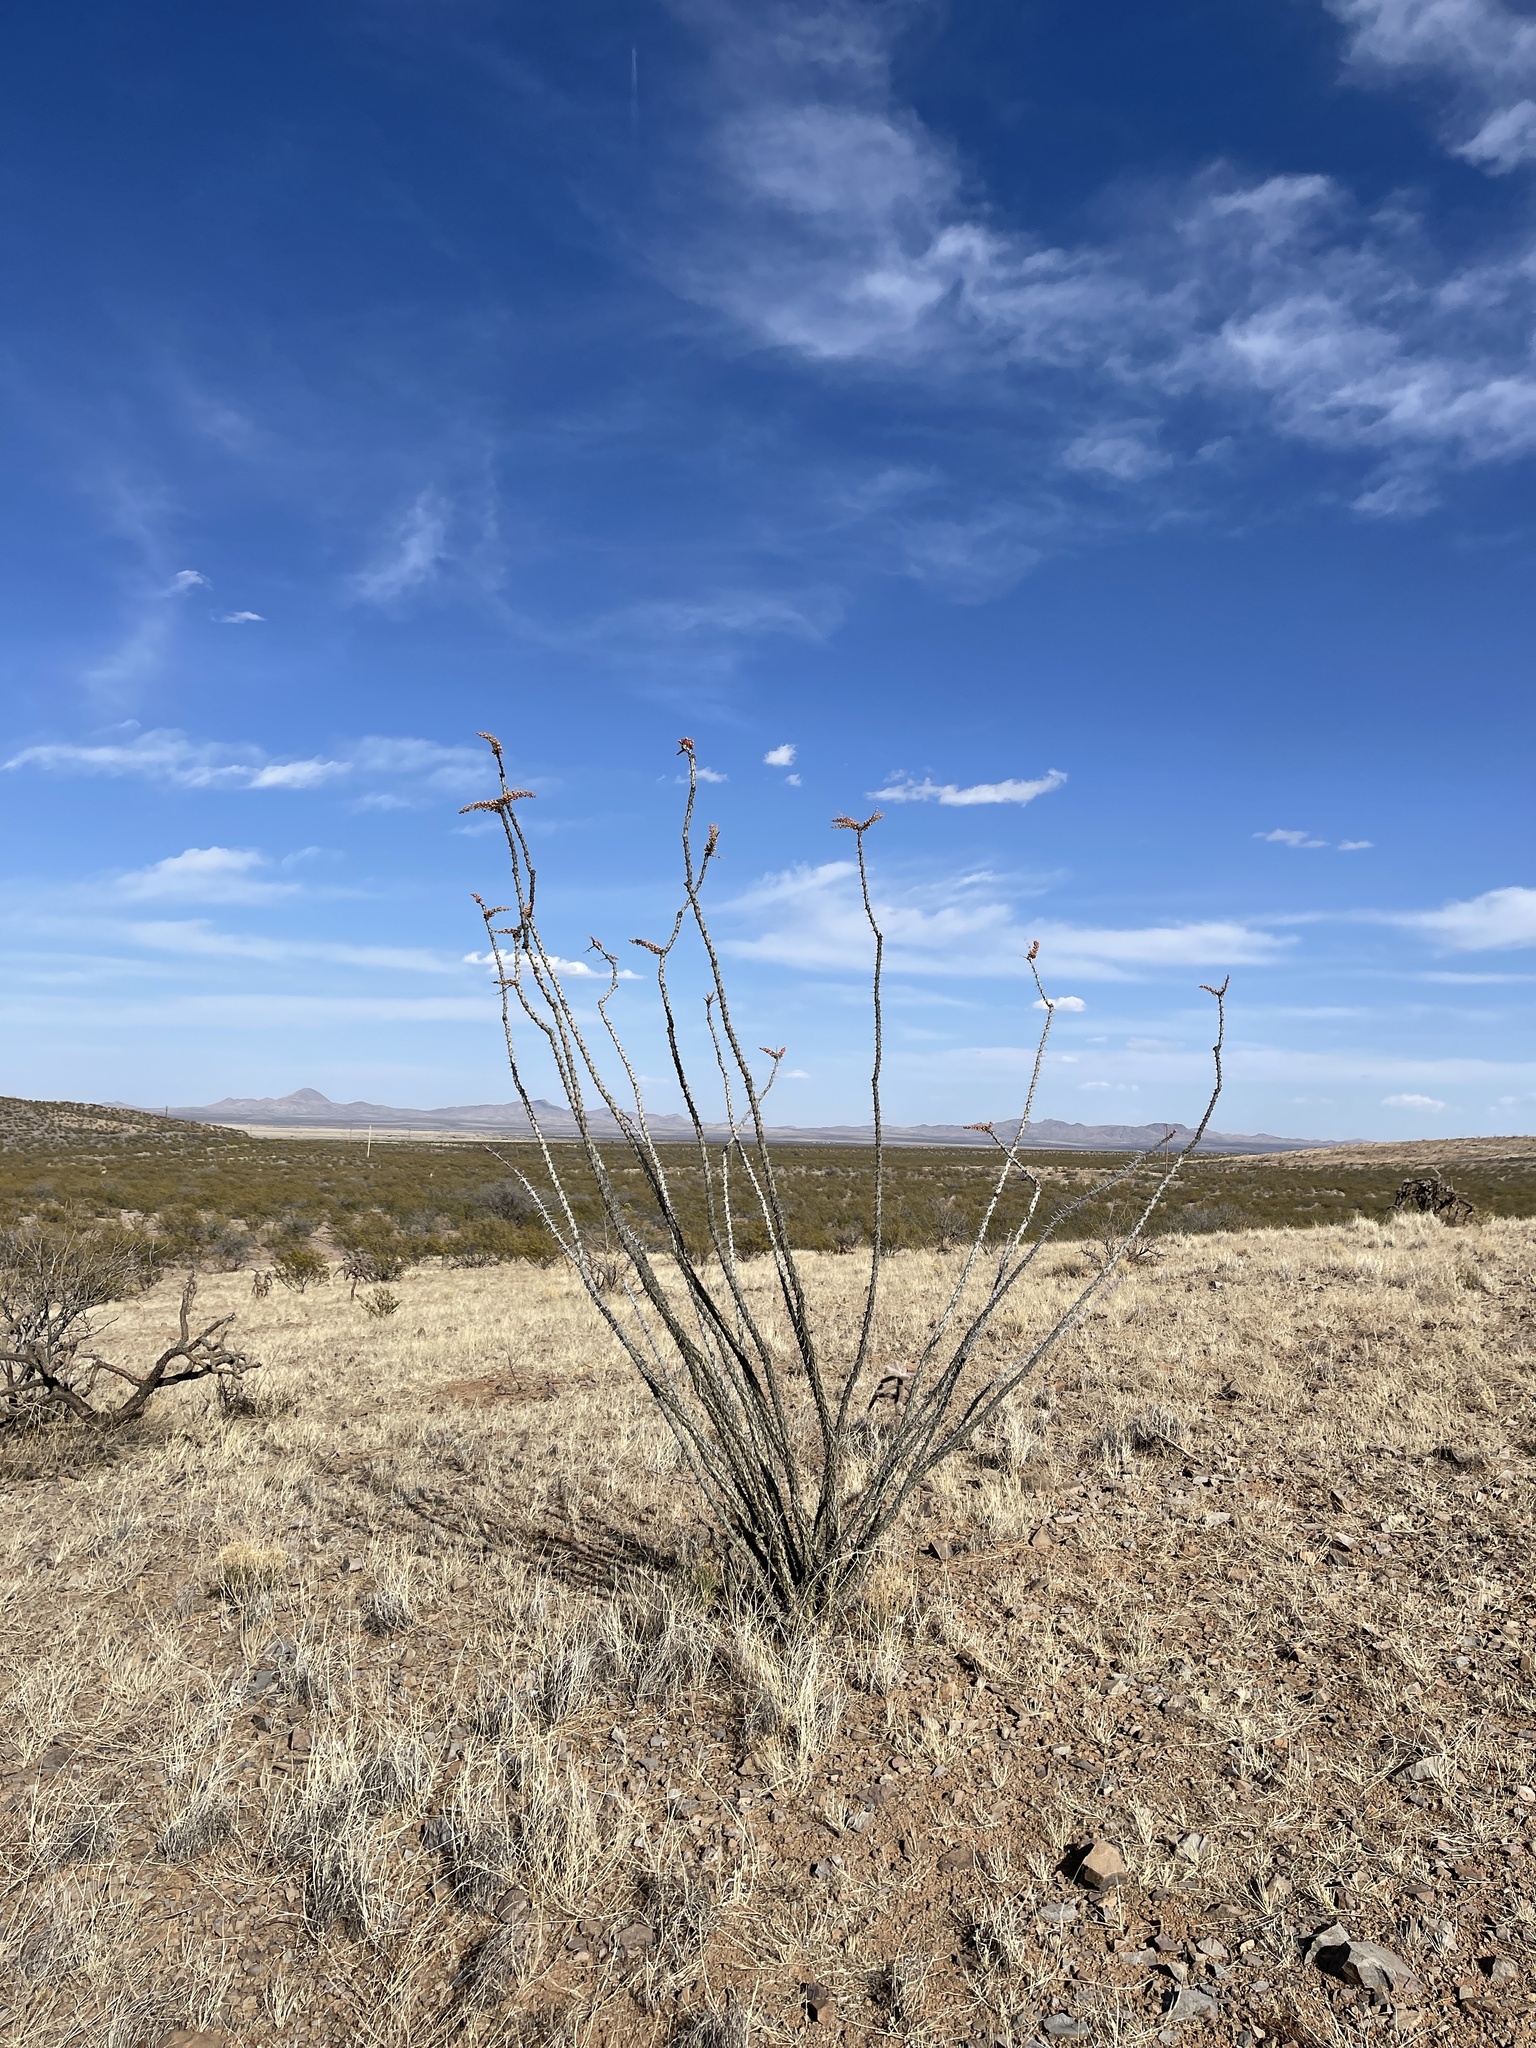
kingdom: Plantae
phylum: Tracheophyta
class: Magnoliopsida
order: Ericales
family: Fouquieriaceae
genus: Fouquieria
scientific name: Fouquieria splendens
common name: Vine-cactus
